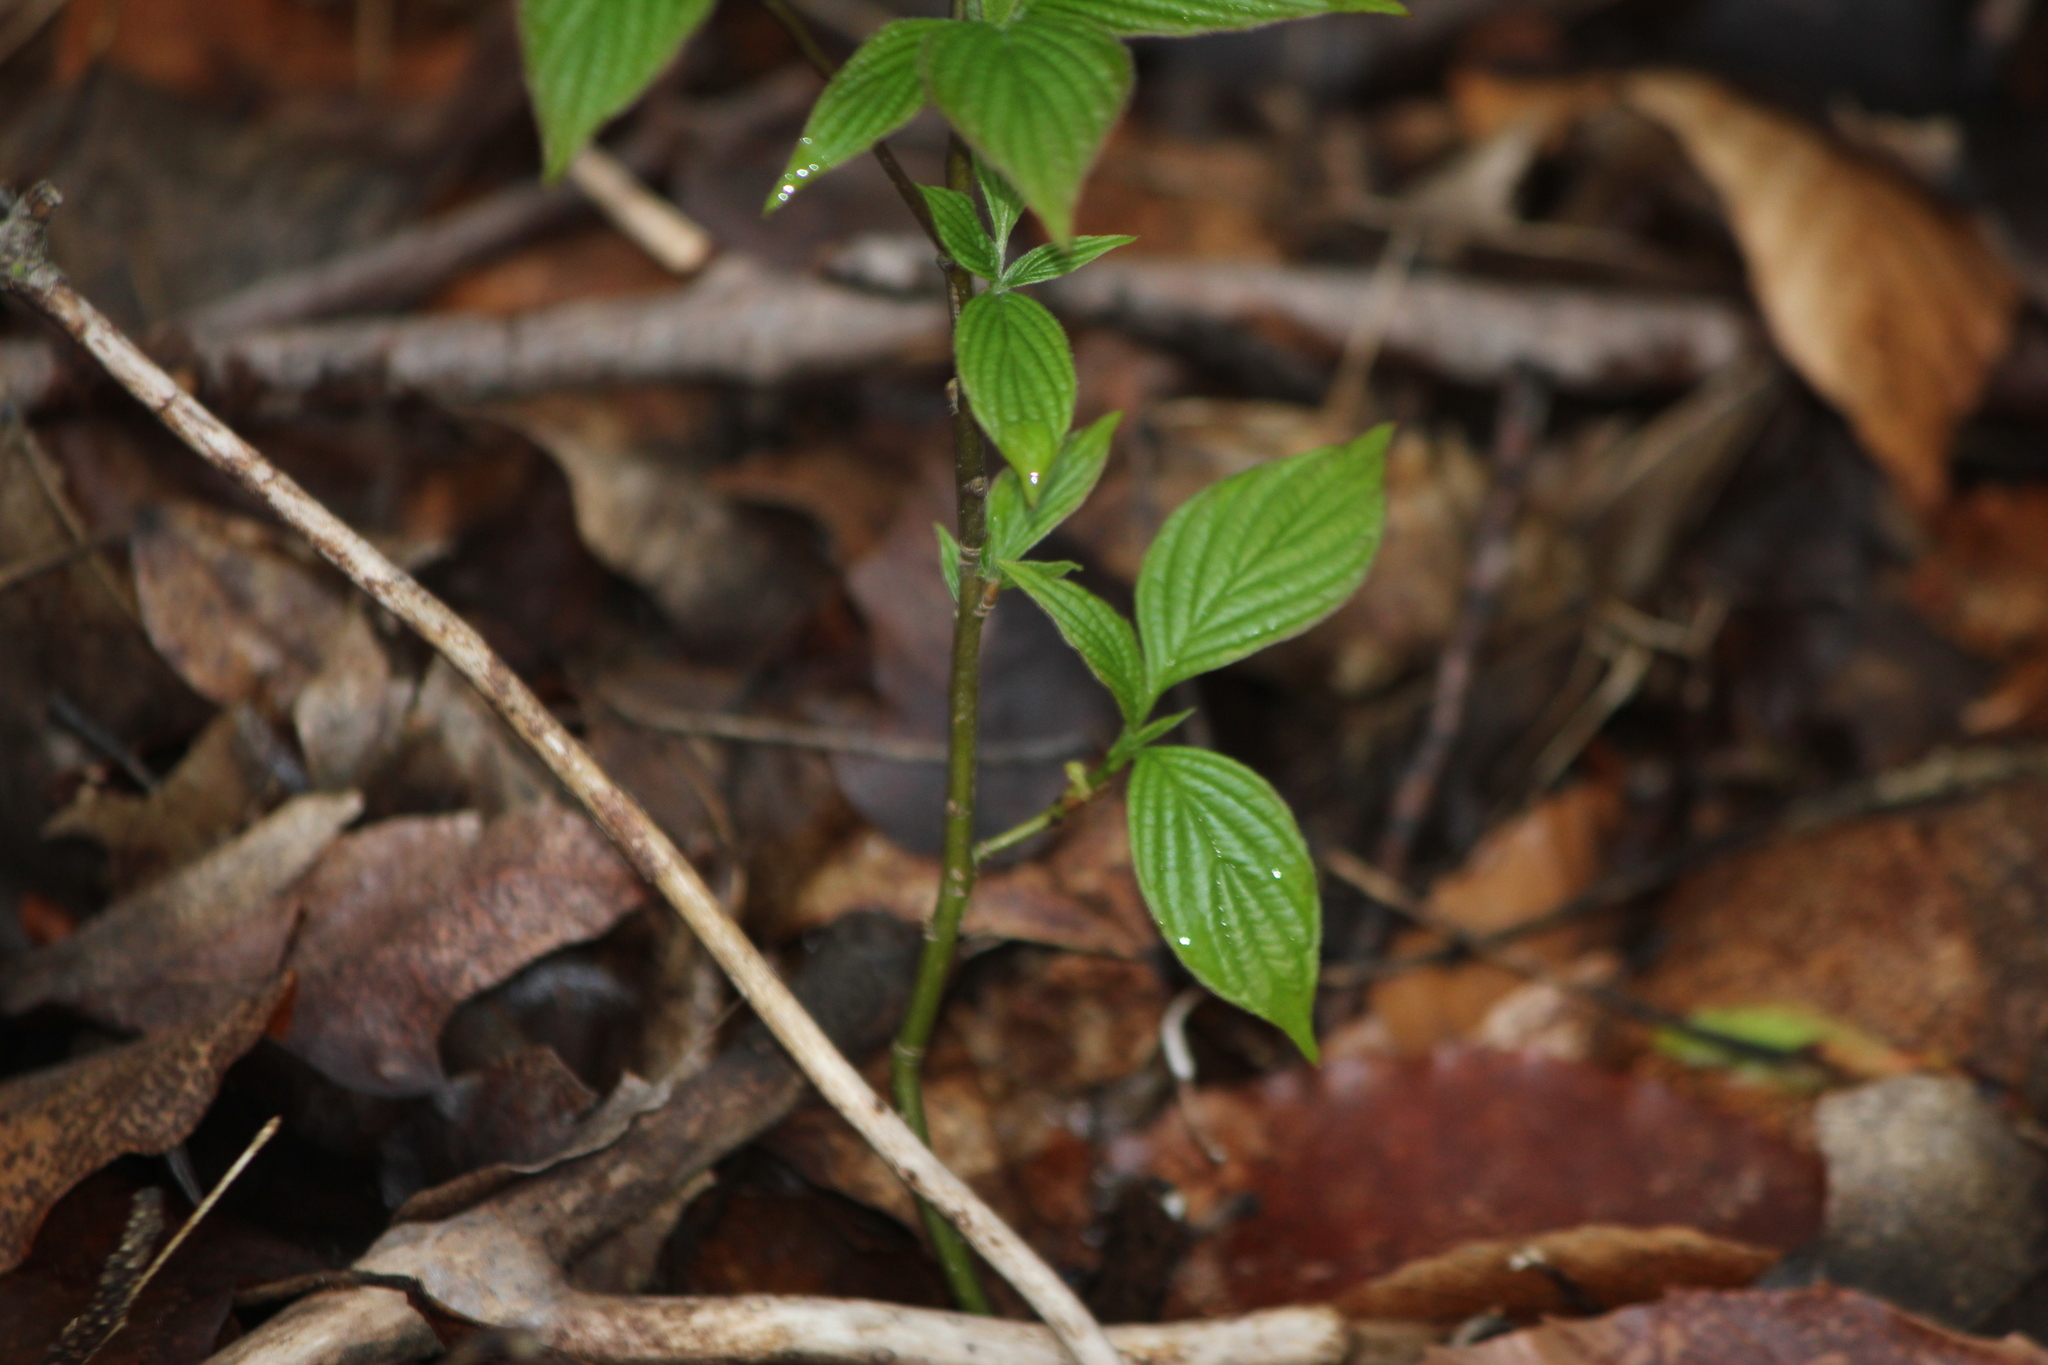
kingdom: Plantae
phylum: Tracheophyta
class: Magnoliopsida
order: Rosales
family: Rosaceae
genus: Prunus
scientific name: Prunus virginiana
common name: Chokecherry
